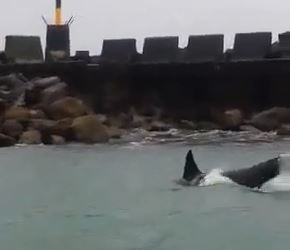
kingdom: Animalia
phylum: Chordata
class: Mammalia
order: Cetacea
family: Delphinidae
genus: Orcinus
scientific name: Orcinus orca
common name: Killer whale
